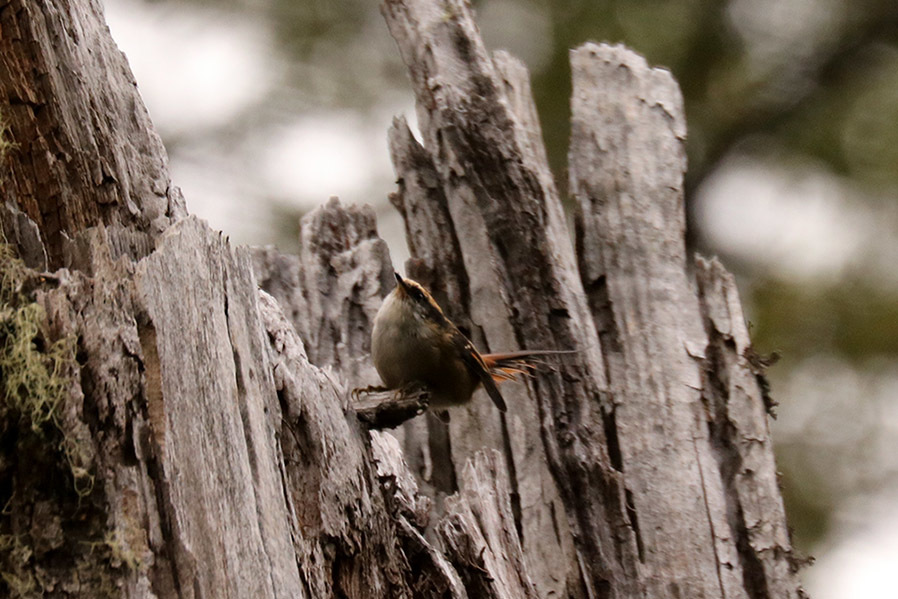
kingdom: Animalia
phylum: Chordata
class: Aves
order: Passeriformes
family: Furnariidae
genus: Aphrastura
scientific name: Aphrastura spinicauda
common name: Thorn-tailed rayadito
